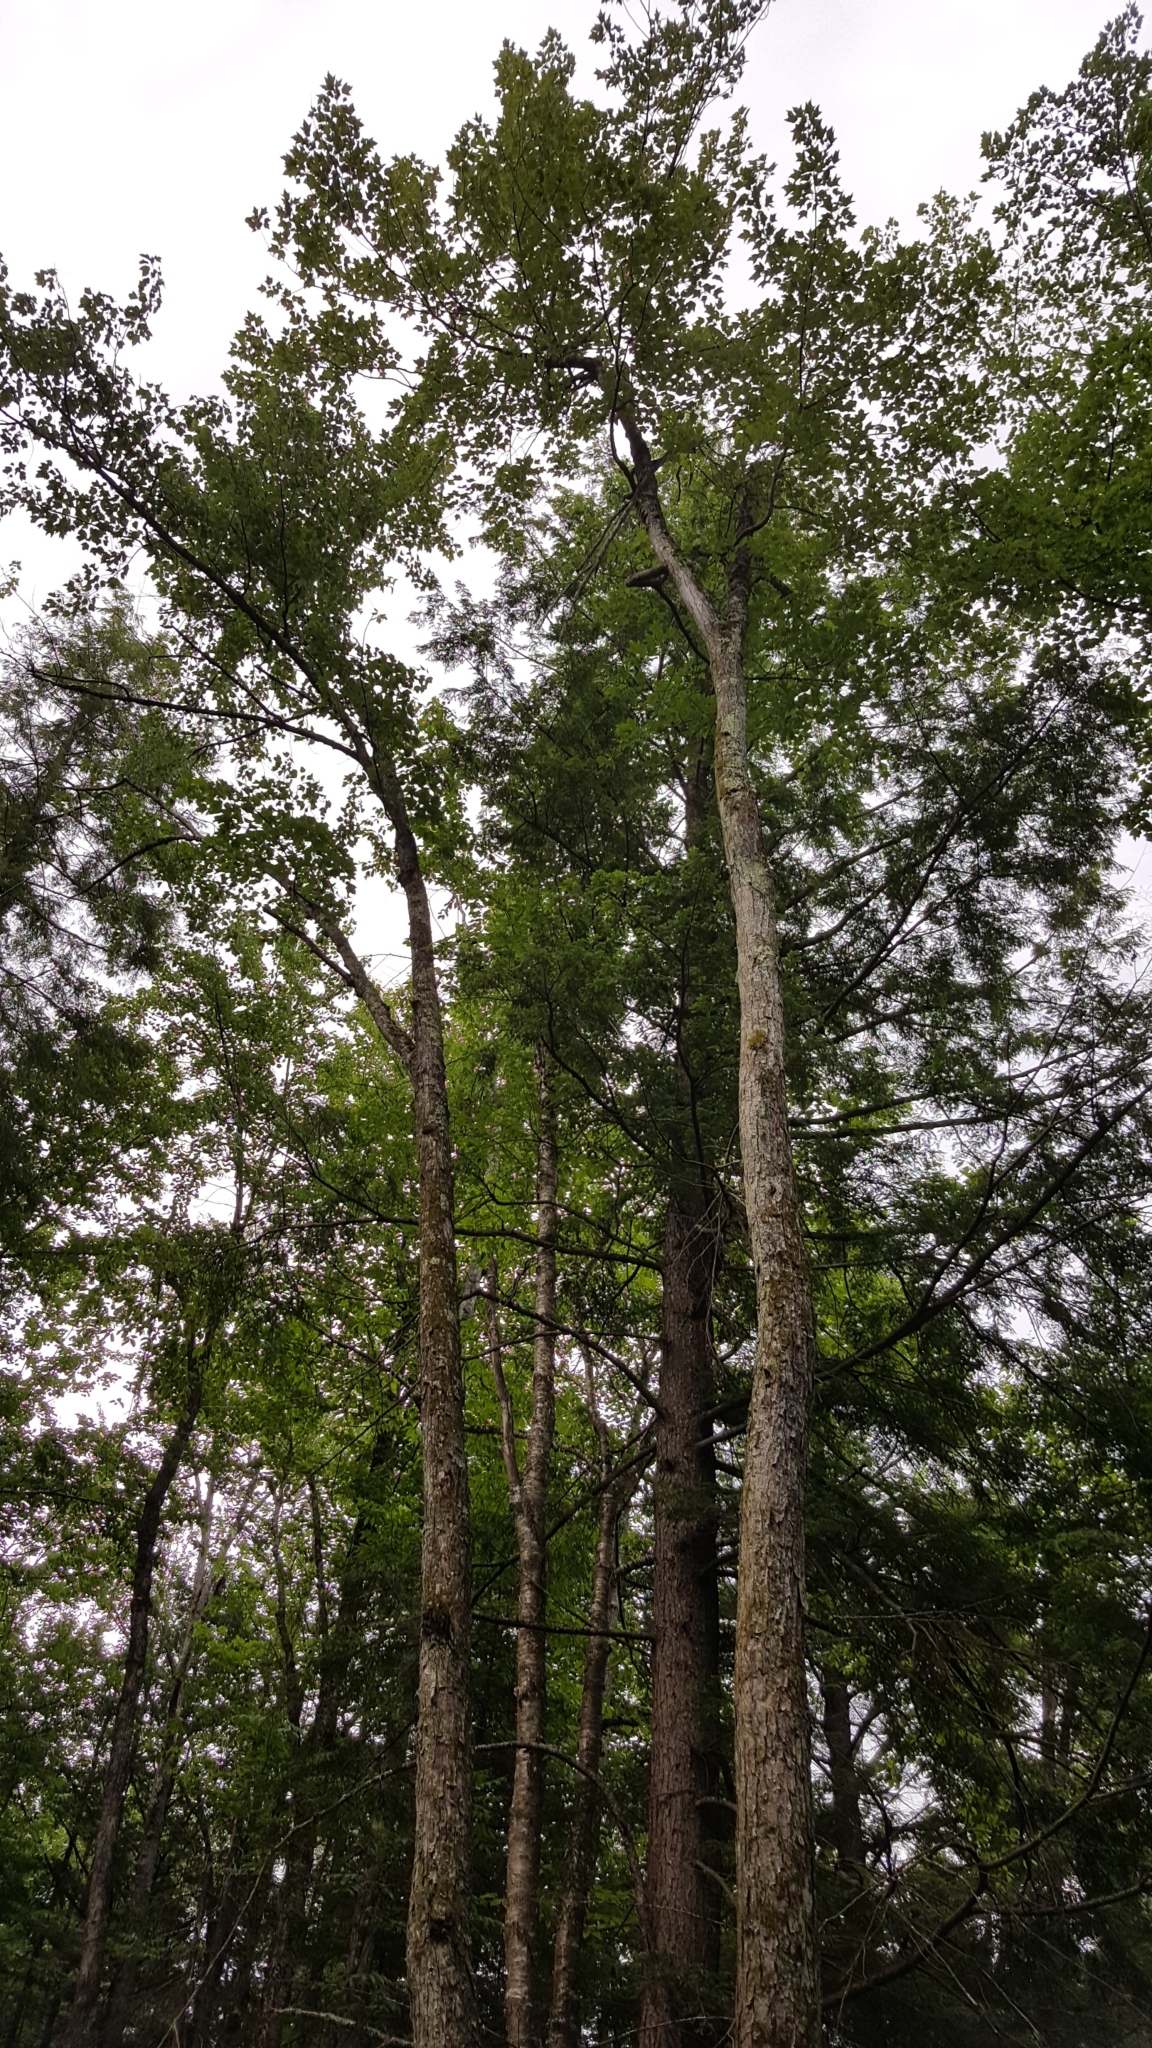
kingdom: Plantae
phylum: Tracheophyta
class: Magnoliopsida
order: Sapindales
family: Sapindaceae
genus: Acer
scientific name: Acer rubrum
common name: Red maple
